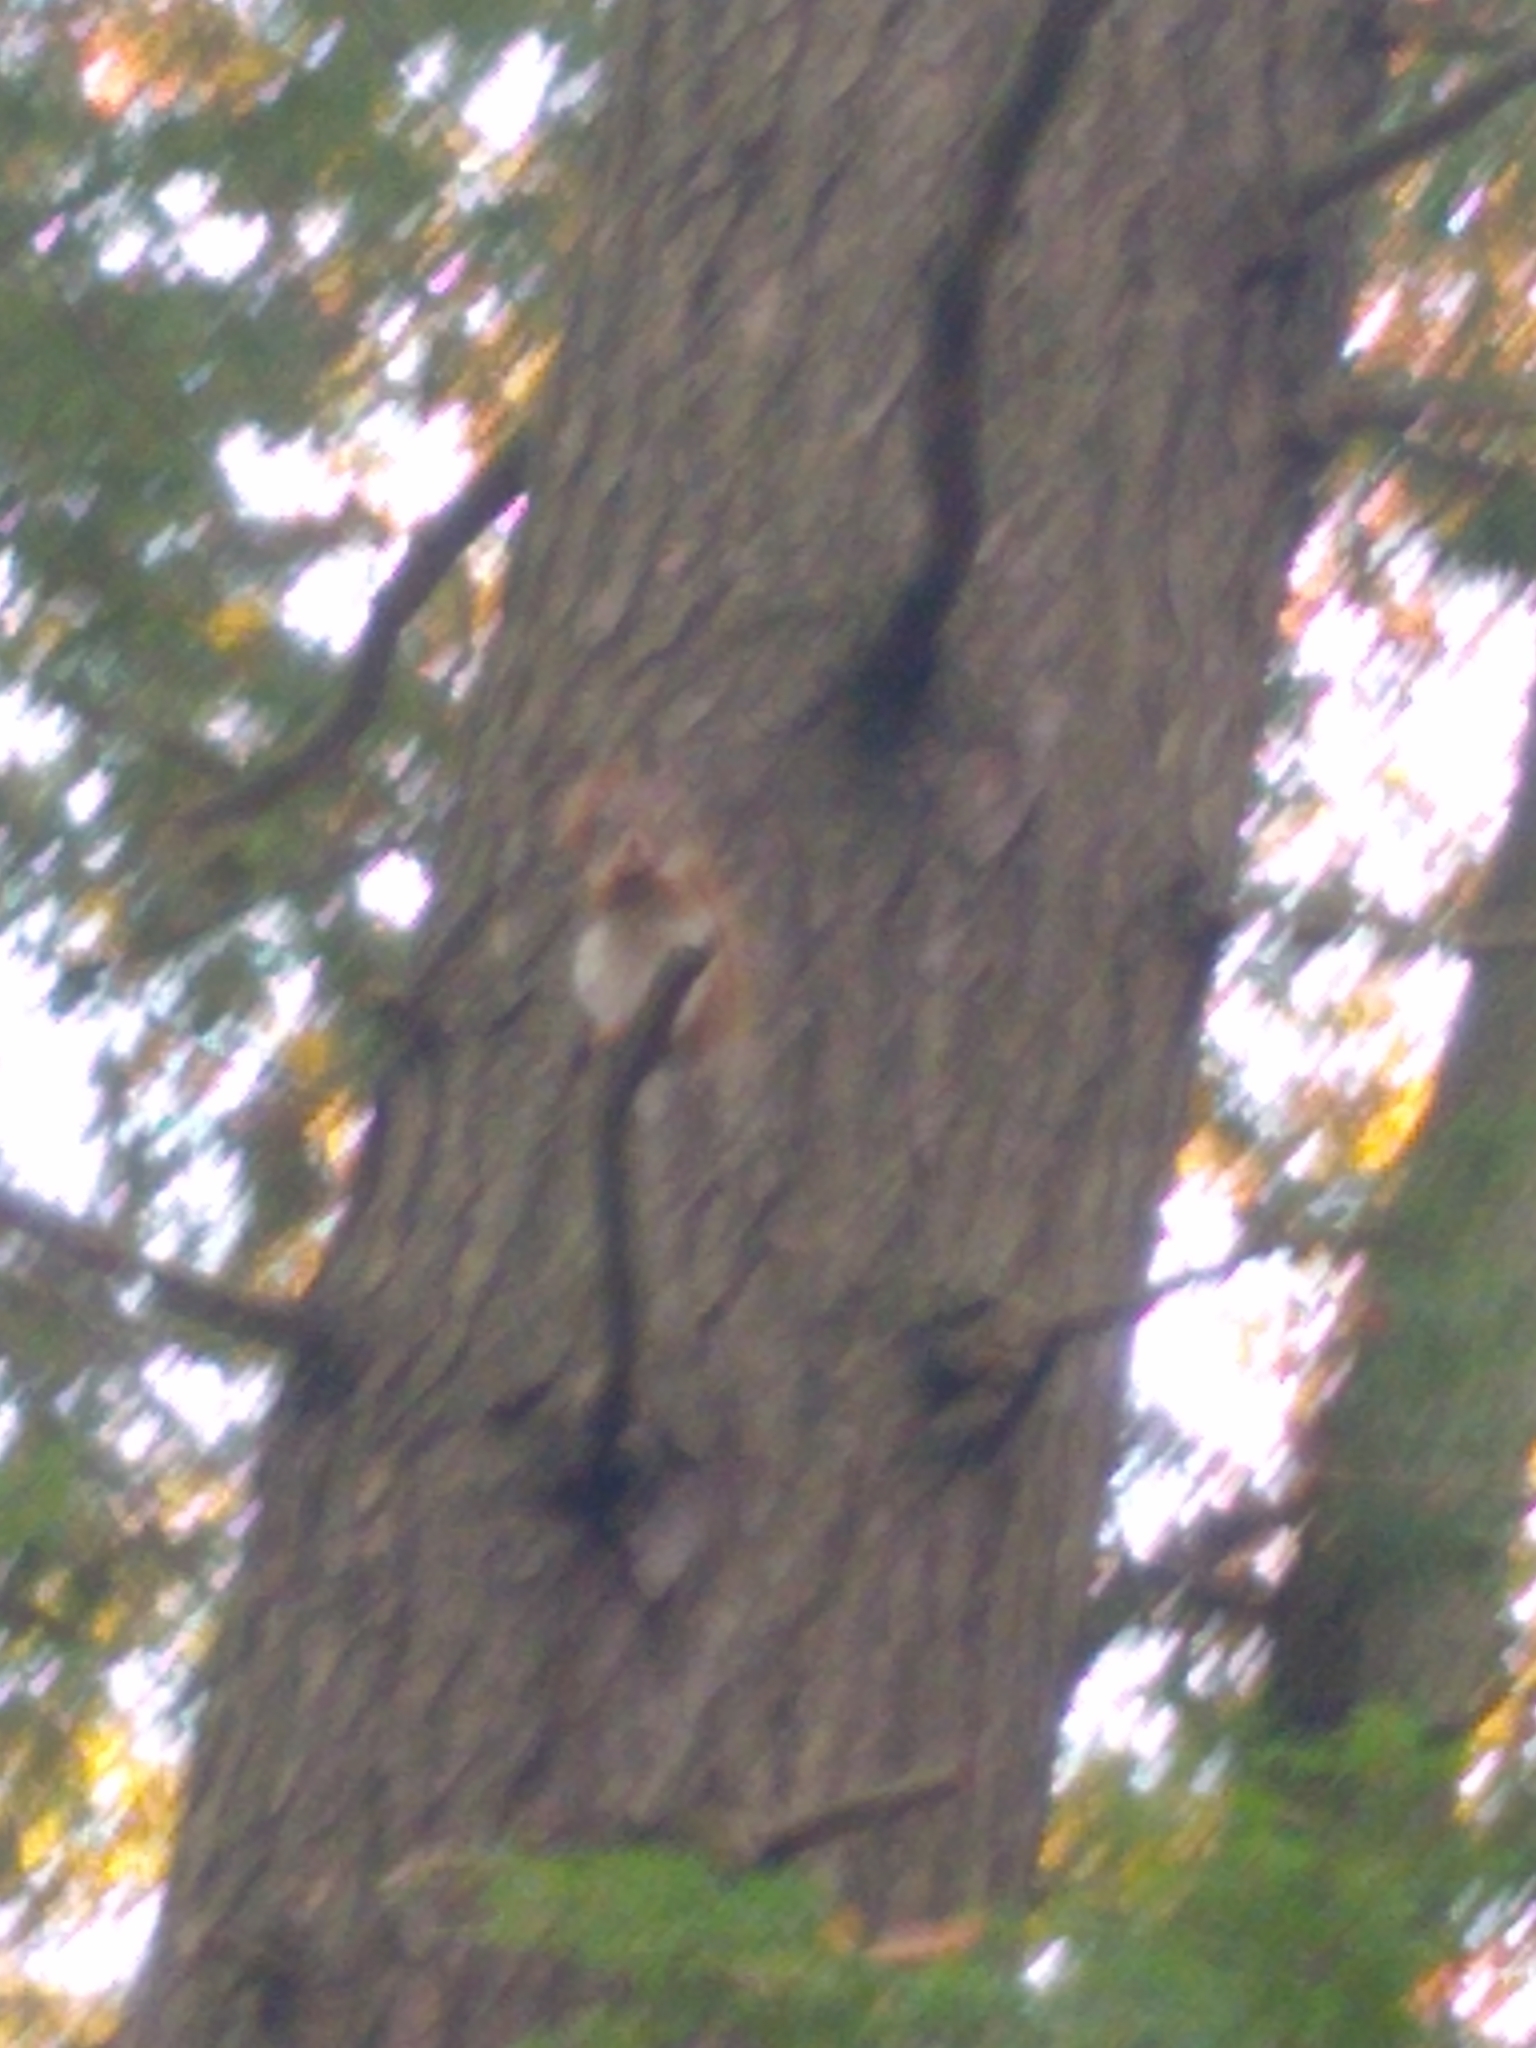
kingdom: Animalia
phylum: Chordata
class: Mammalia
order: Rodentia
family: Sciuridae
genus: Tamiasciurus
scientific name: Tamiasciurus hudsonicus
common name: Red squirrel
